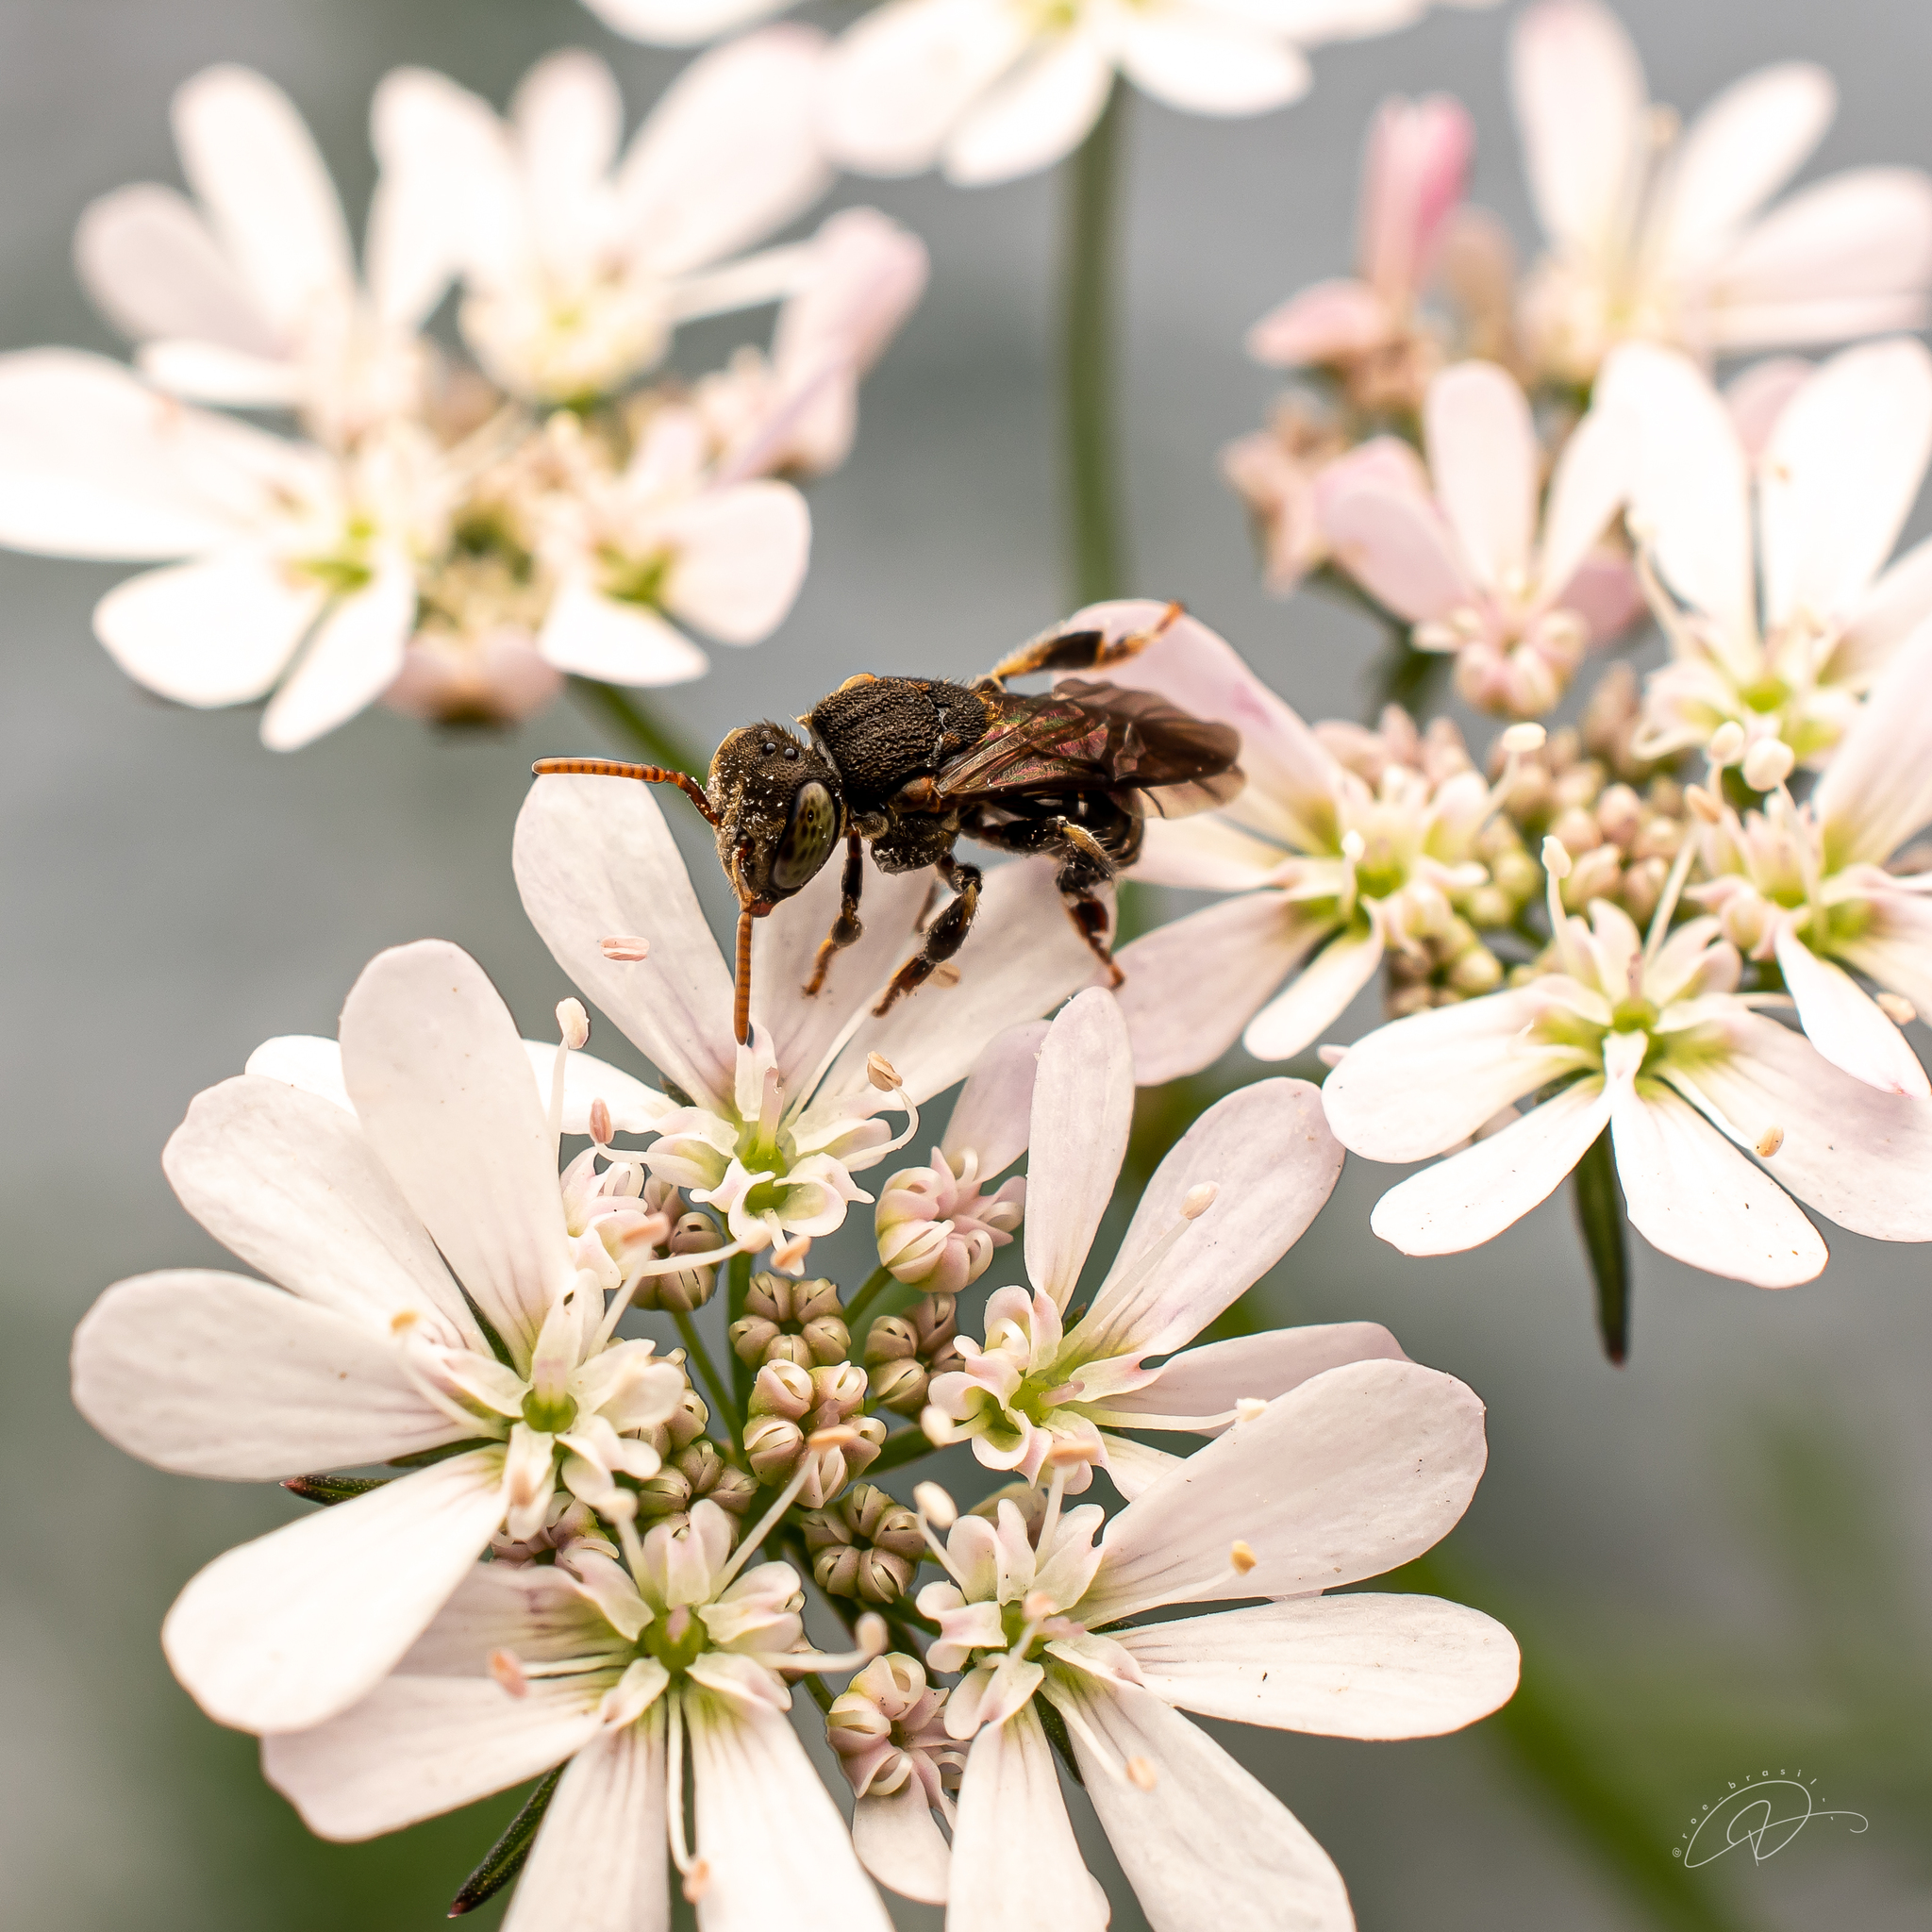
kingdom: Animalia
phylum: Arthropoda
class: Insecta
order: Hymenoptera
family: Apidae
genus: Nannotrigona
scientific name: Nannotrigona testaceicornis
